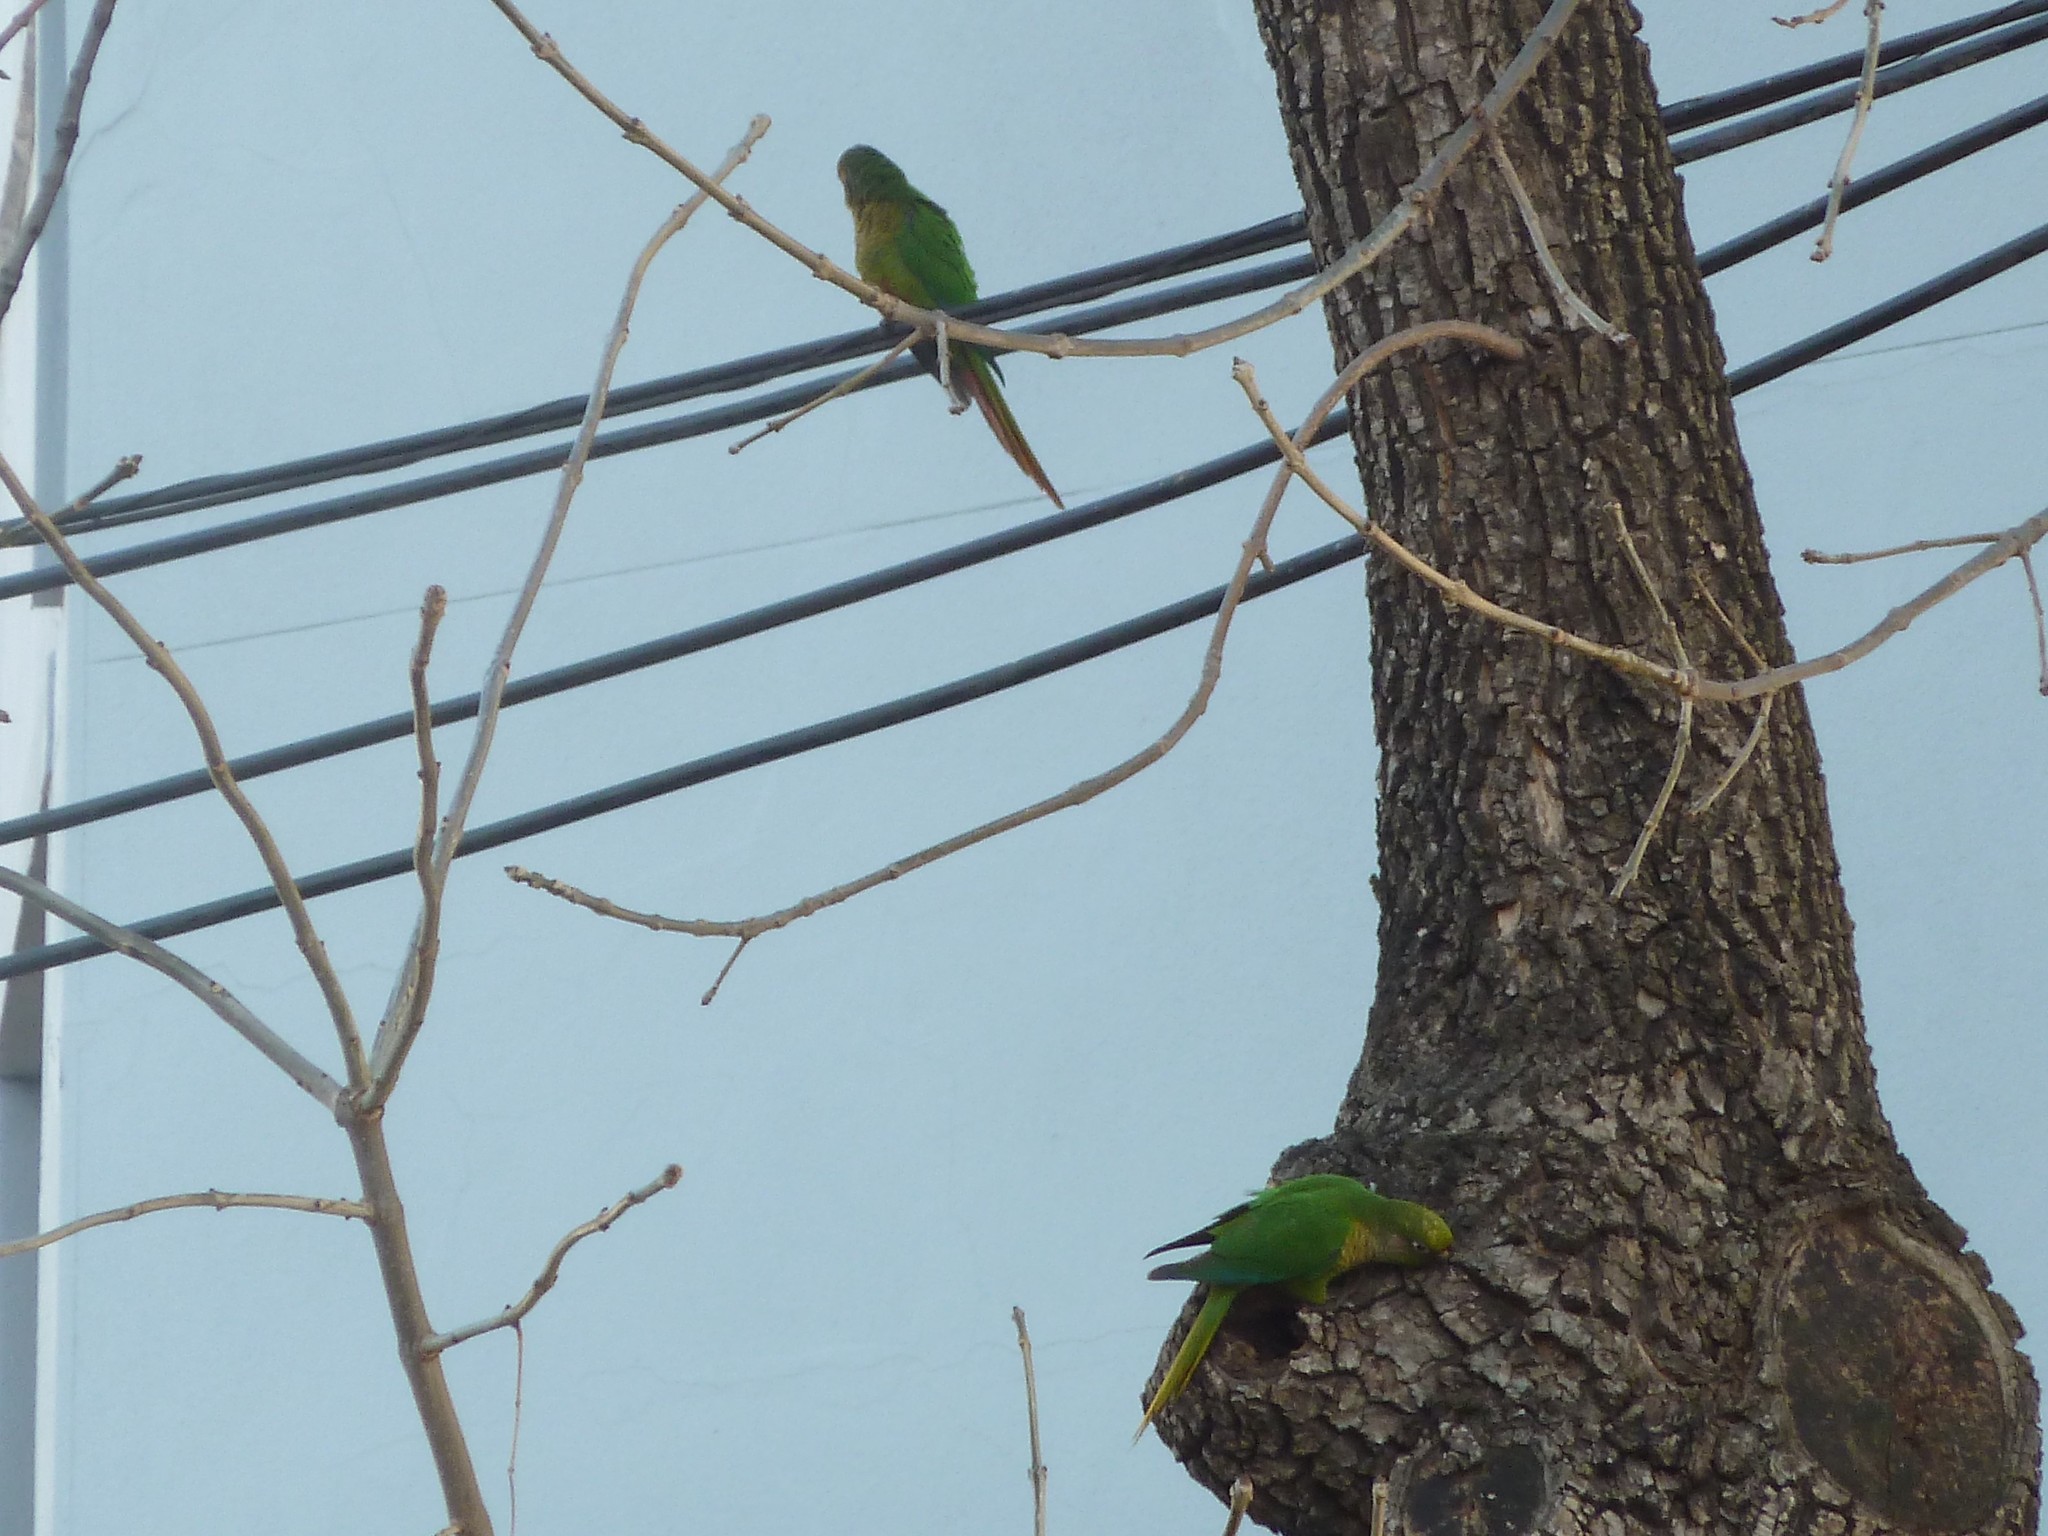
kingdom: Animalia
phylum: Chordata
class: Aves
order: Psittaciformes
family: Psittacidae
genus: Pyrrhura
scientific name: Pyrrhura frontalis
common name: Maroon-bellied parakeet
